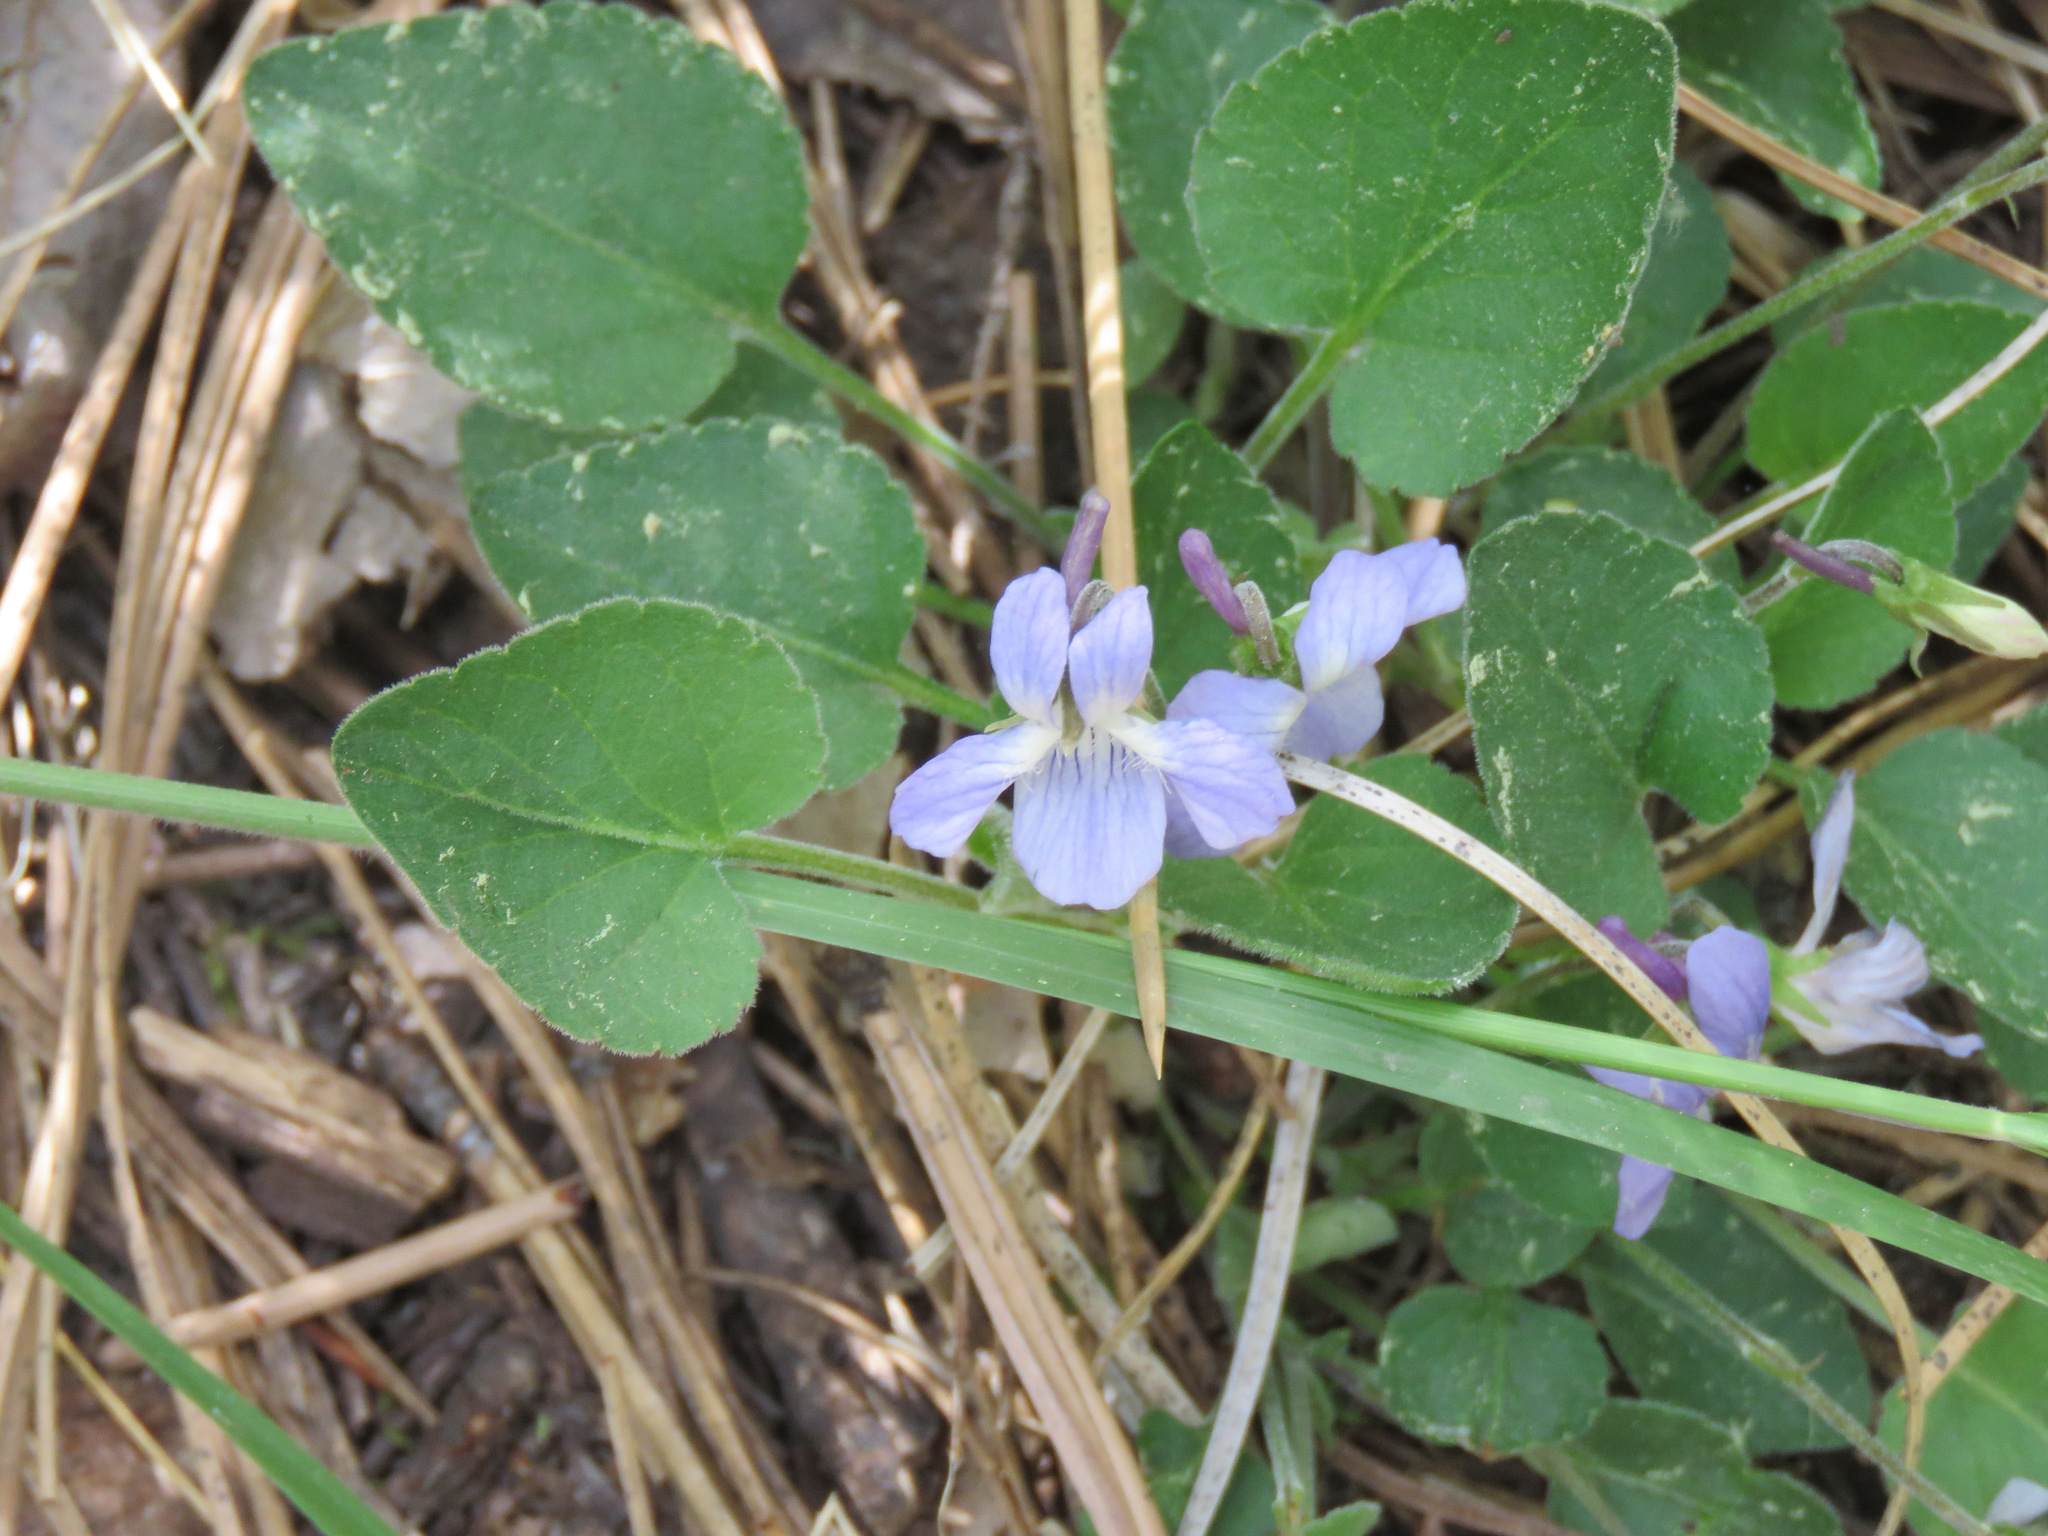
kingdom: Plantae
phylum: Tracheophyta
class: Magnoliopsida
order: Malpighiales
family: Violaceae
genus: Viola
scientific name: Viola adunca
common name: Sand violet
